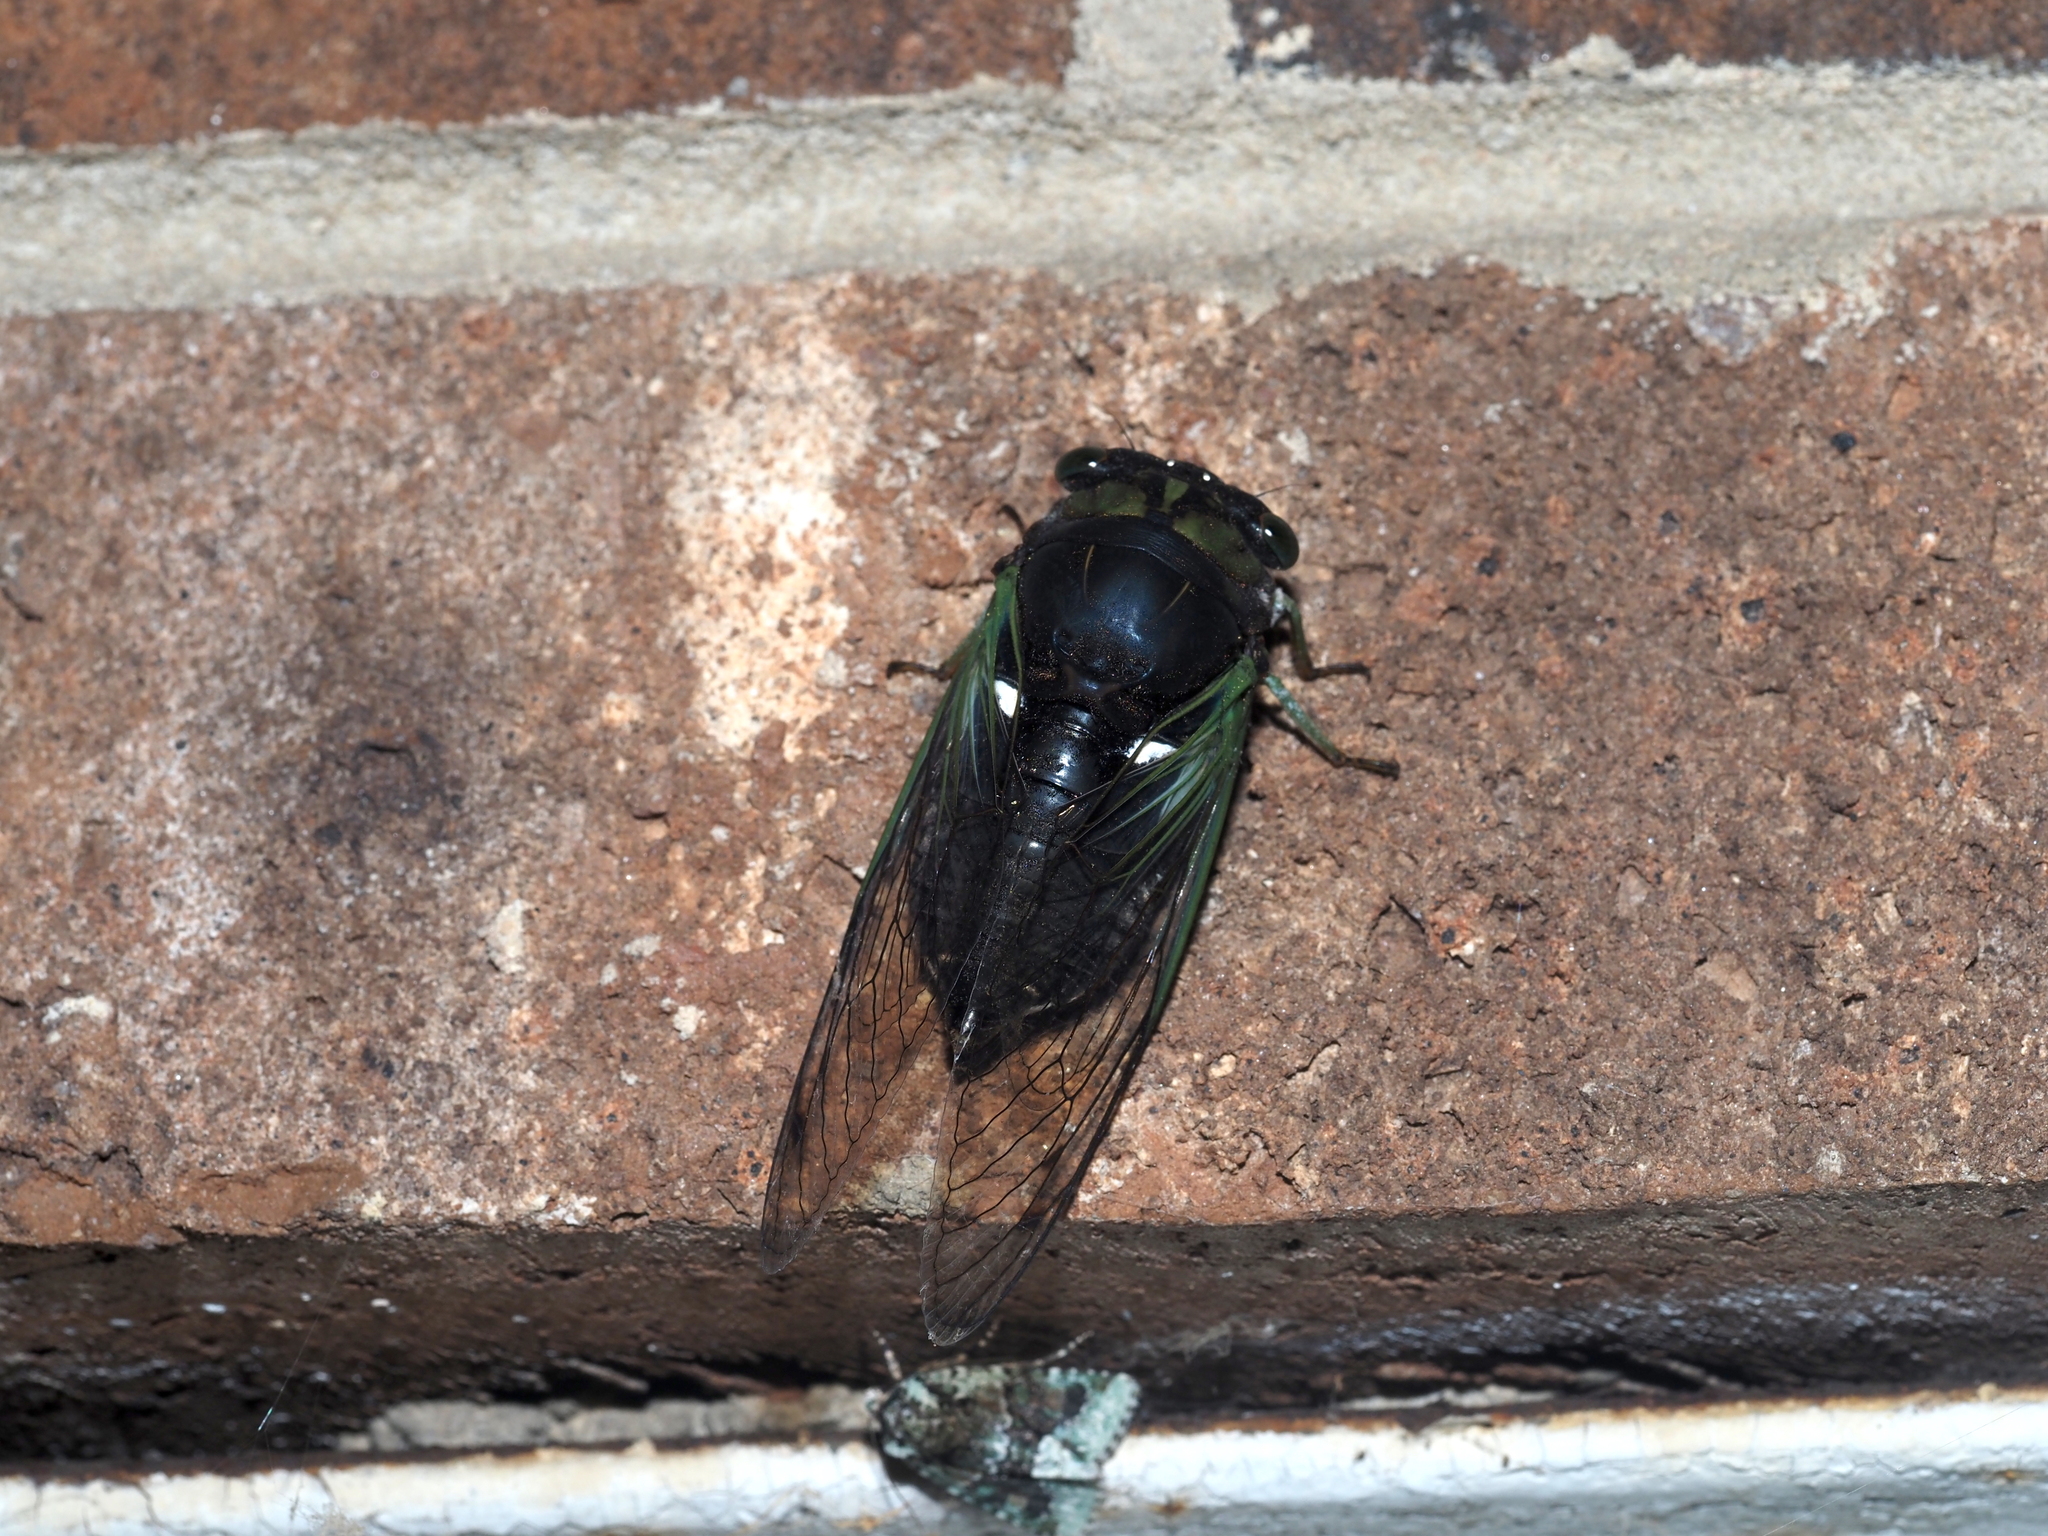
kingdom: Animalia
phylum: Arthropoda
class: Insecta
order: Hemiptera
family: Cicadidae
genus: Neotibicen
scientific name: Neotibicen tibicen
